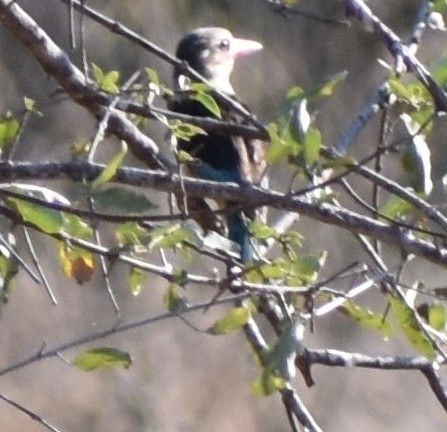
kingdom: Animalia
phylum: Chordata
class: Aves
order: Coraciiformes
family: Alcedinidae
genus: Halcyon
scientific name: Halcyon albiventris
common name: Brown-hooded kingfisher
